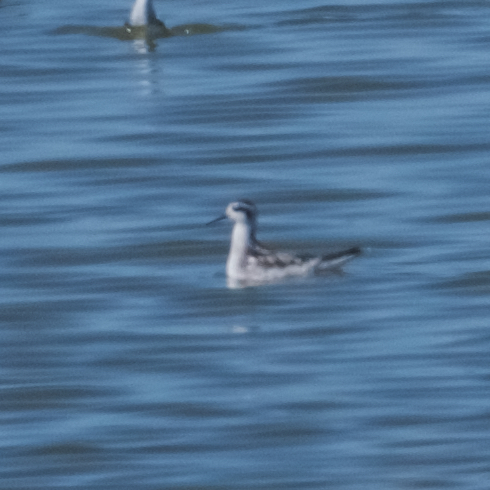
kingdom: Animalia
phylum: Chordata
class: Aves
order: Charadriiformes
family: Scolopacidae
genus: Phalaropus
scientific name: Phalaropus lobatus
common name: Red-necked phalarope
